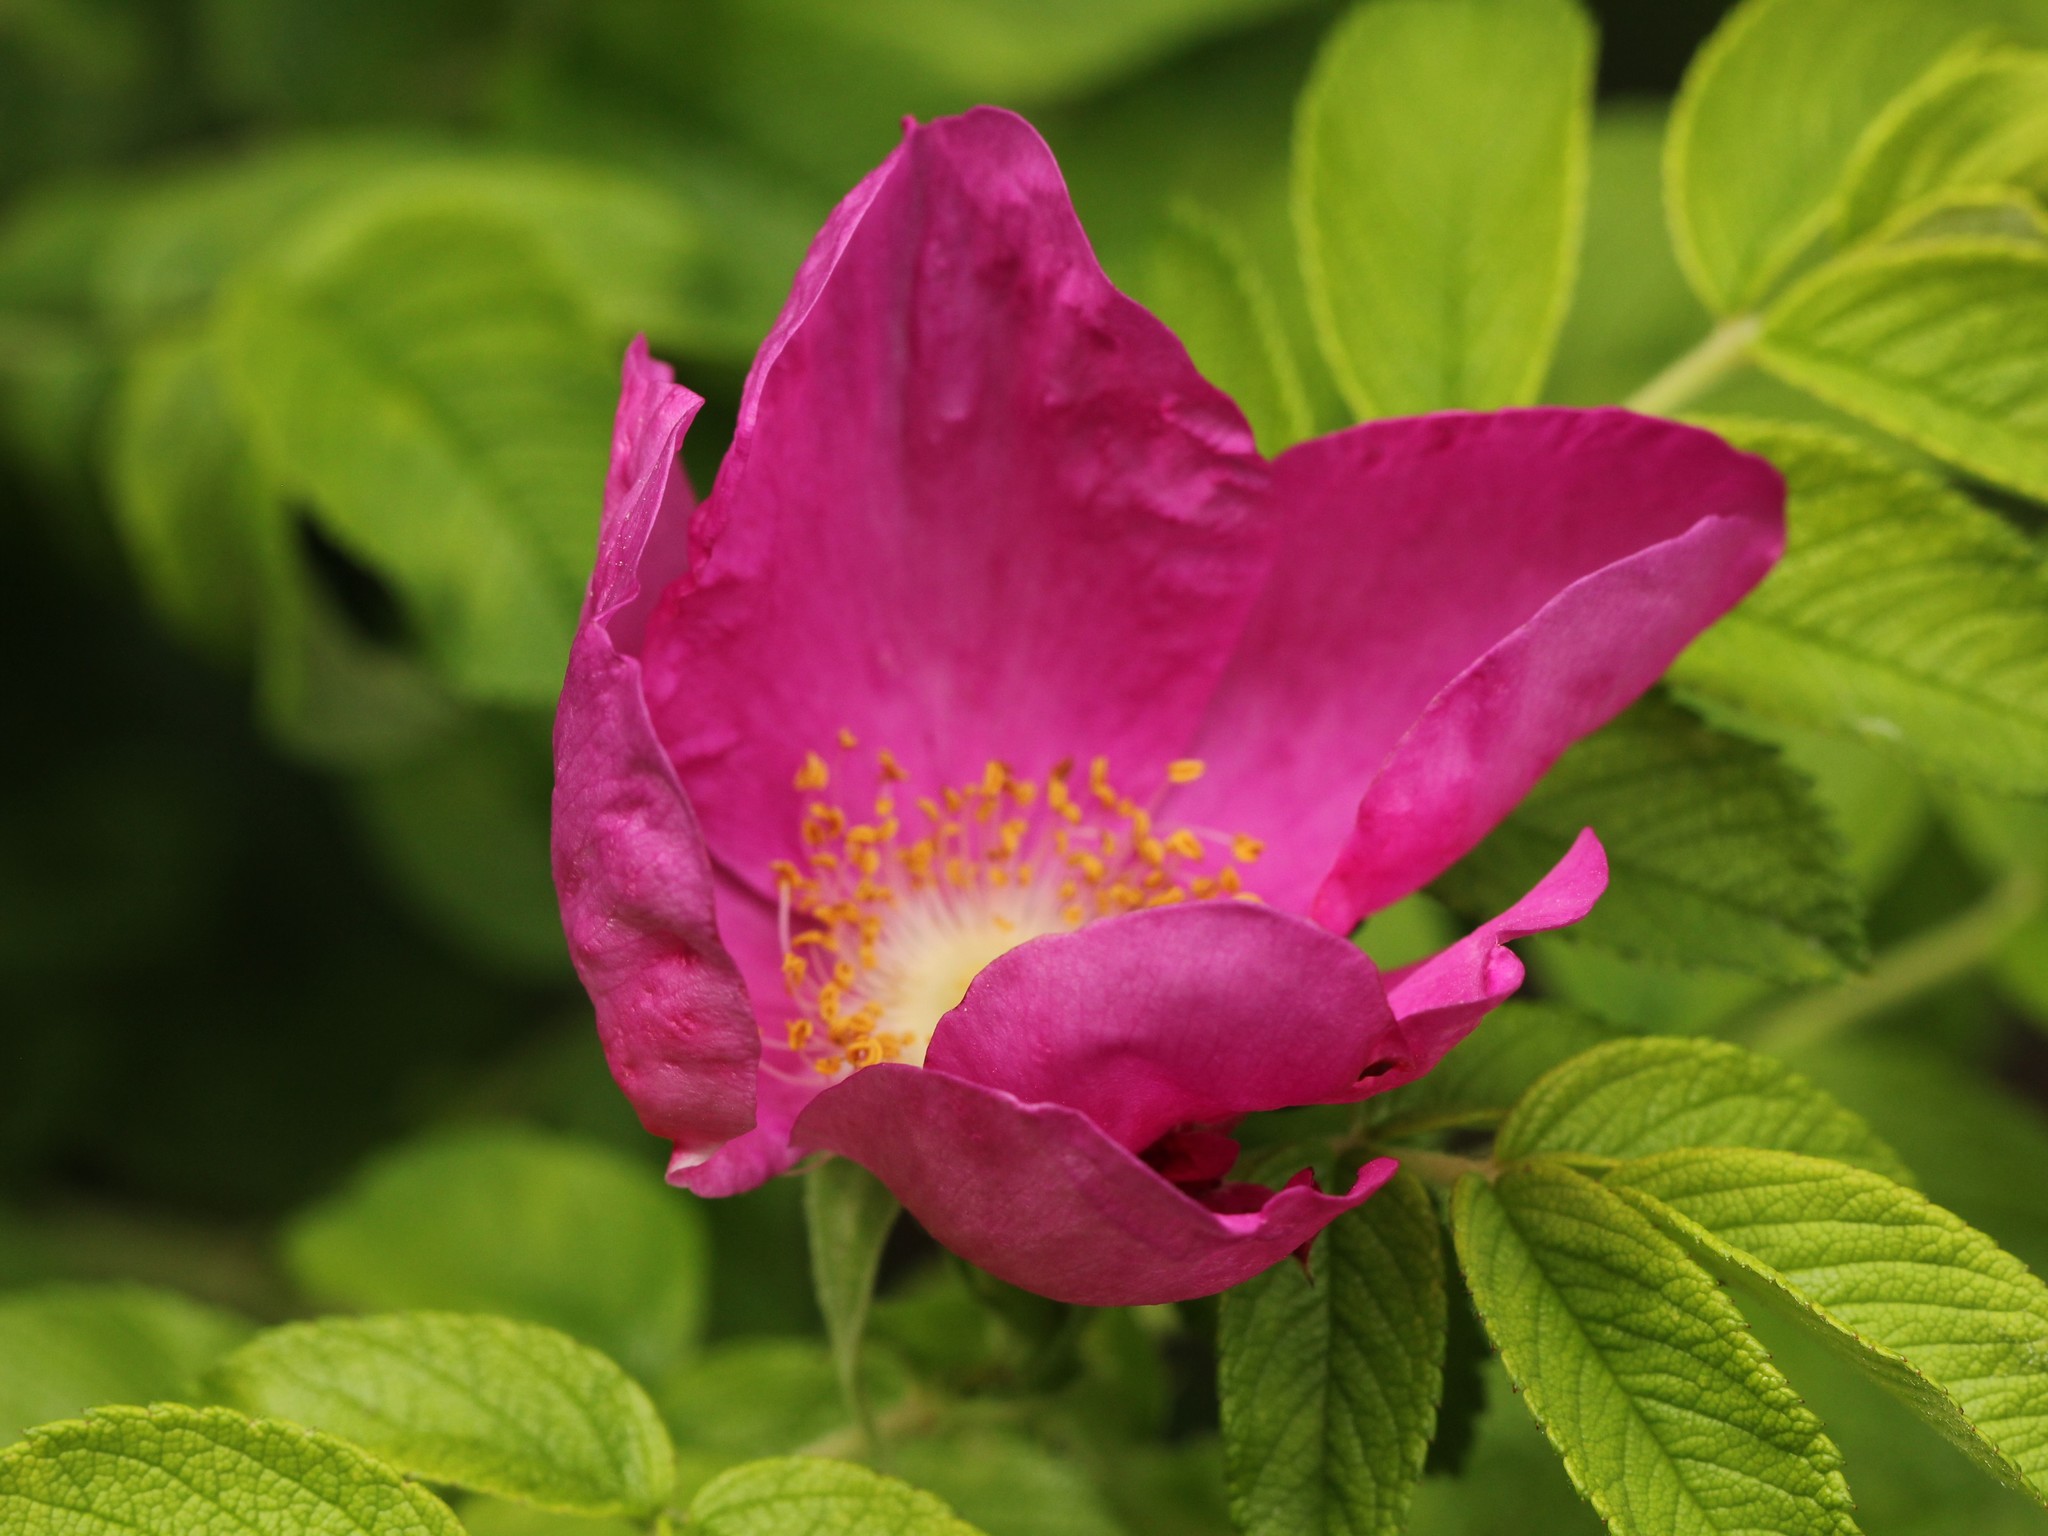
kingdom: Plantae
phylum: Tracheophyta
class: Magnoliopsida
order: Rosales
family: Rosaceae
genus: Rosa
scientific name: Rosa rugosa
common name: Japanese rose
